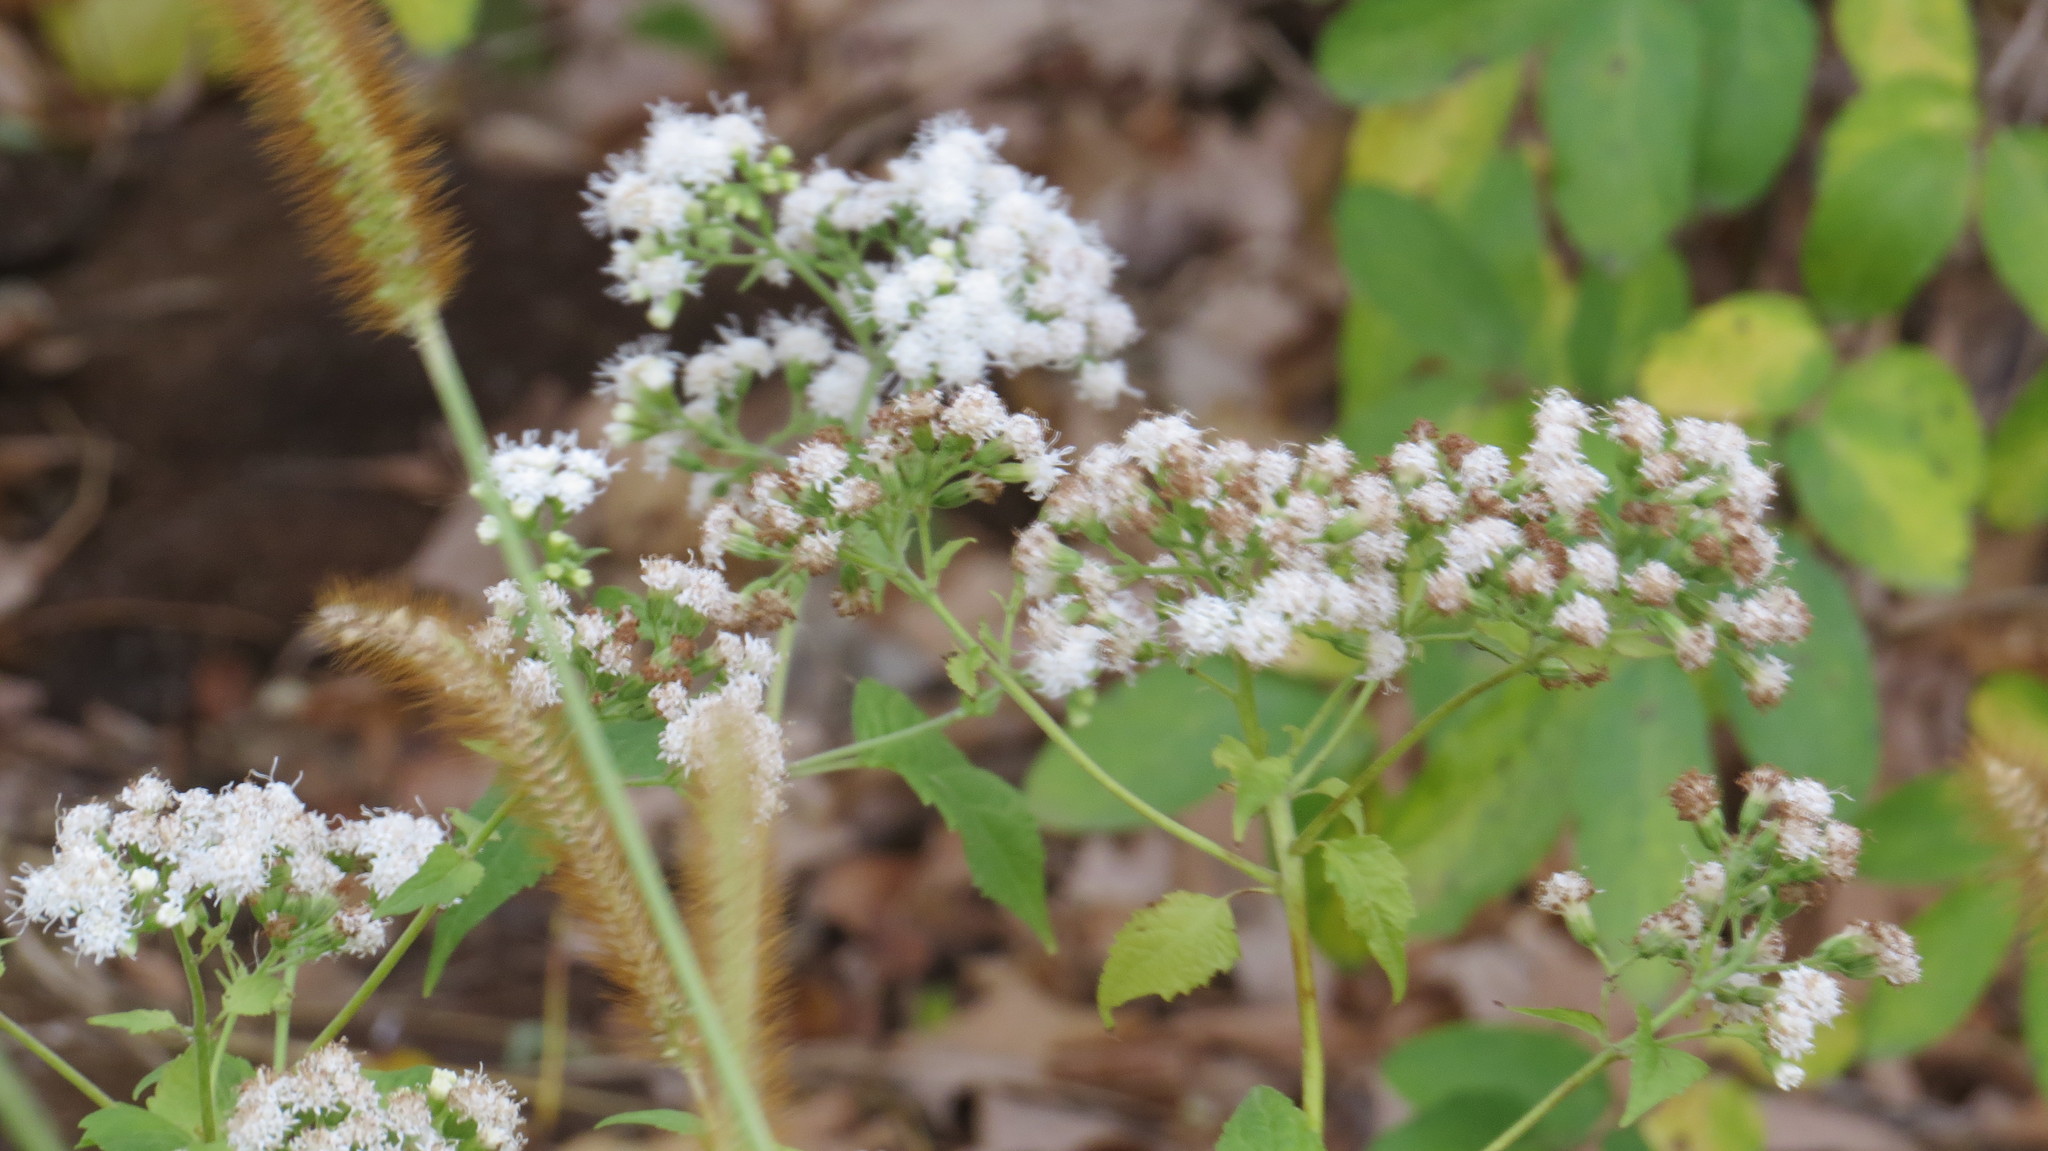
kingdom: Plantae
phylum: Tracheophyta
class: Magnoliopsida
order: Asterales
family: Asteraceae
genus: Ageratina
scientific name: Ageratina altissima
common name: White snakeroot
